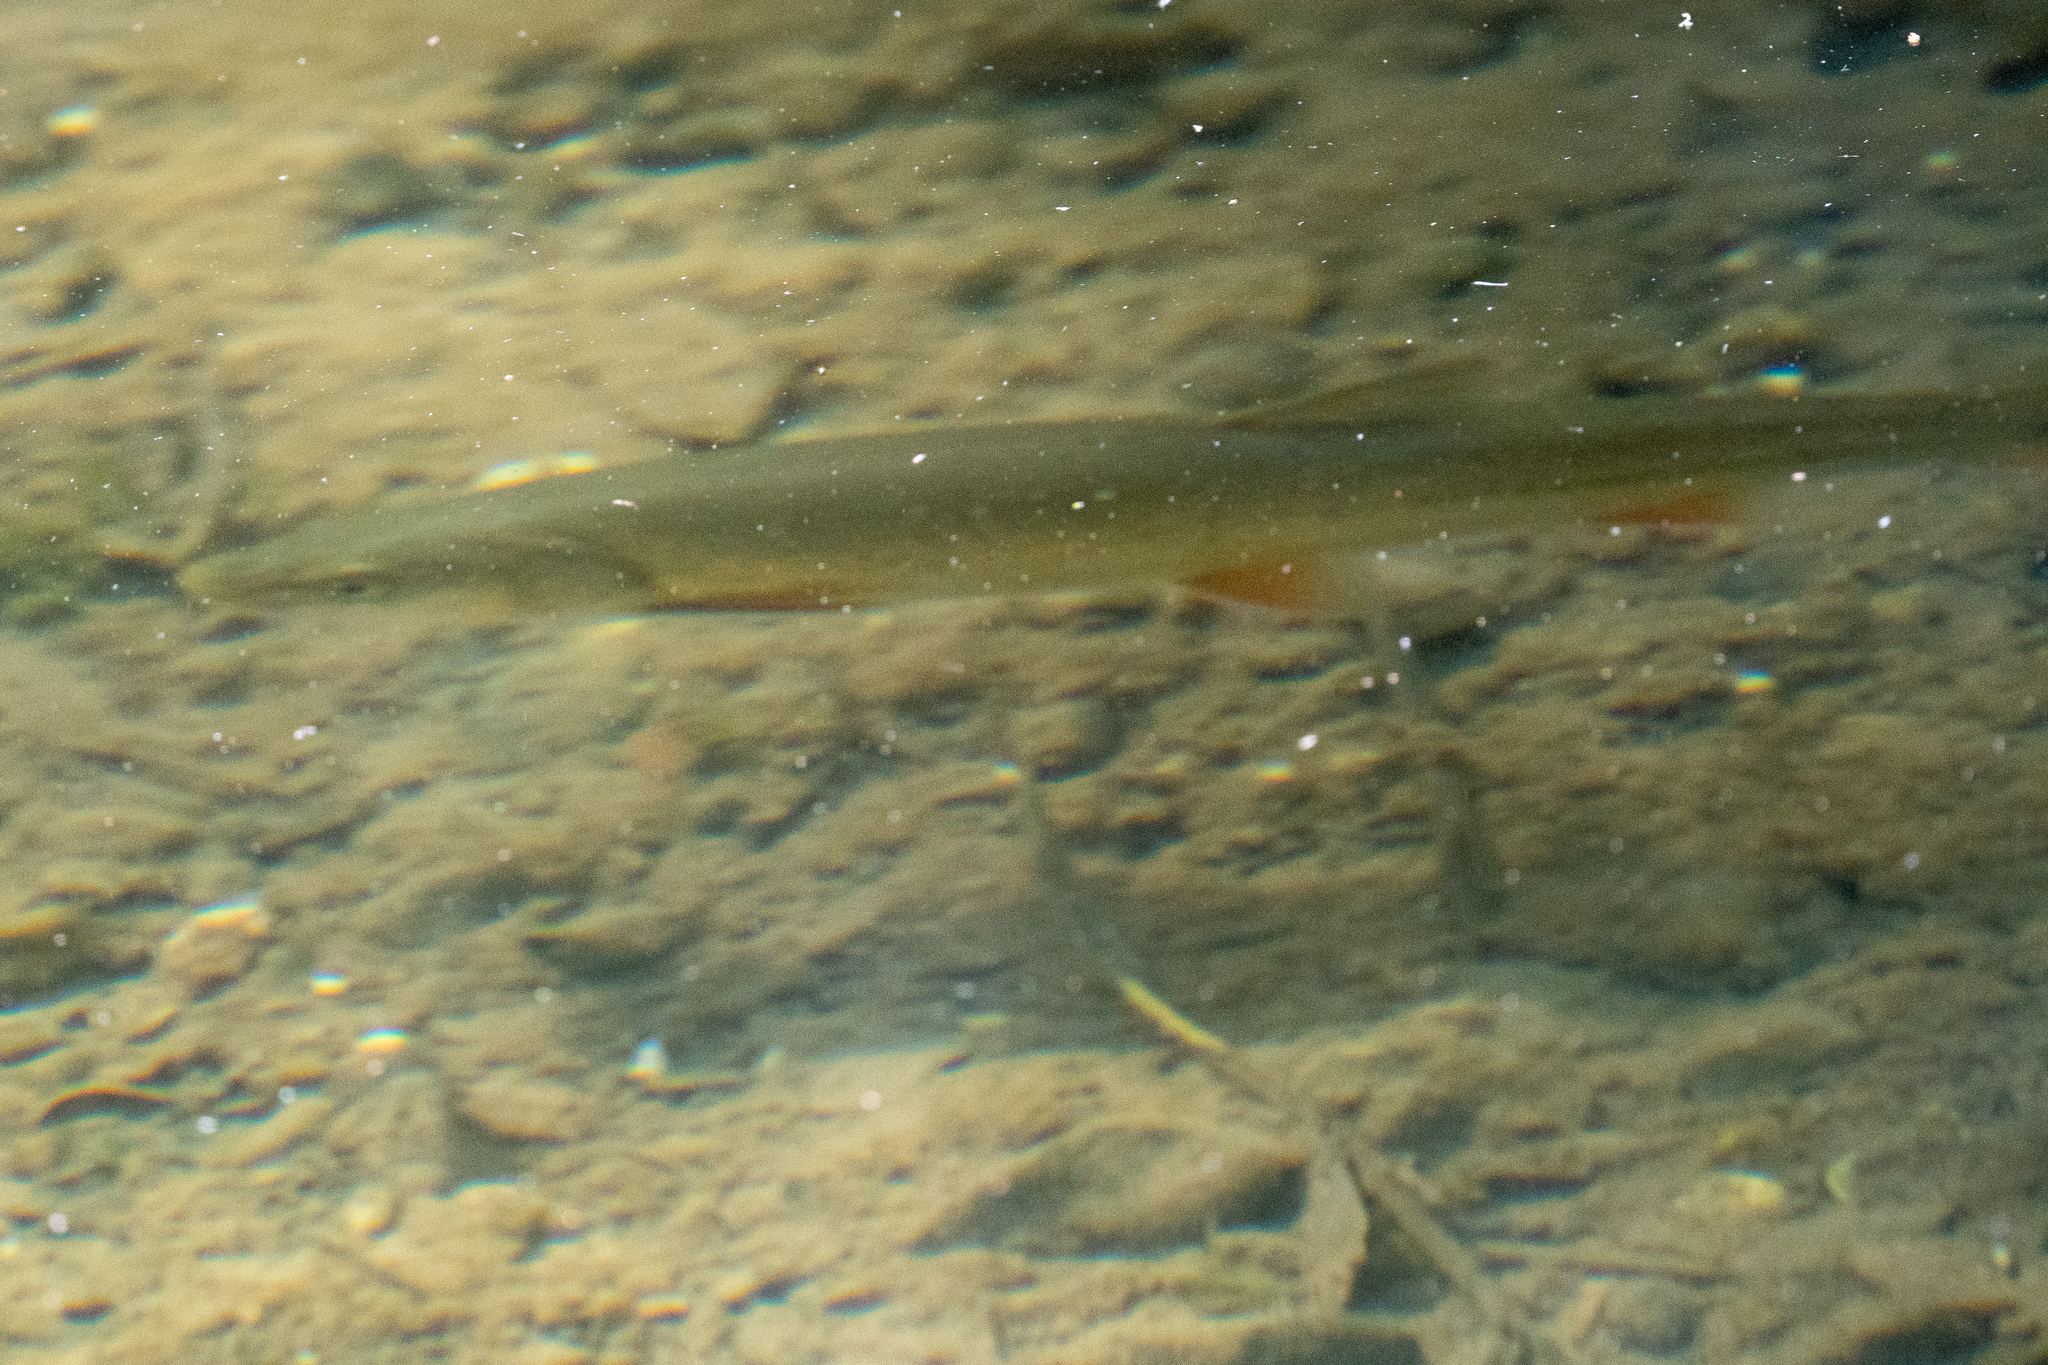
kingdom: Animalia
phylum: Chordata
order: Cypriniformes
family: Cyprinidae
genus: Ptychocheilus
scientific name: Ptychocheilus grandis
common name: Sacramento pikeminnow
